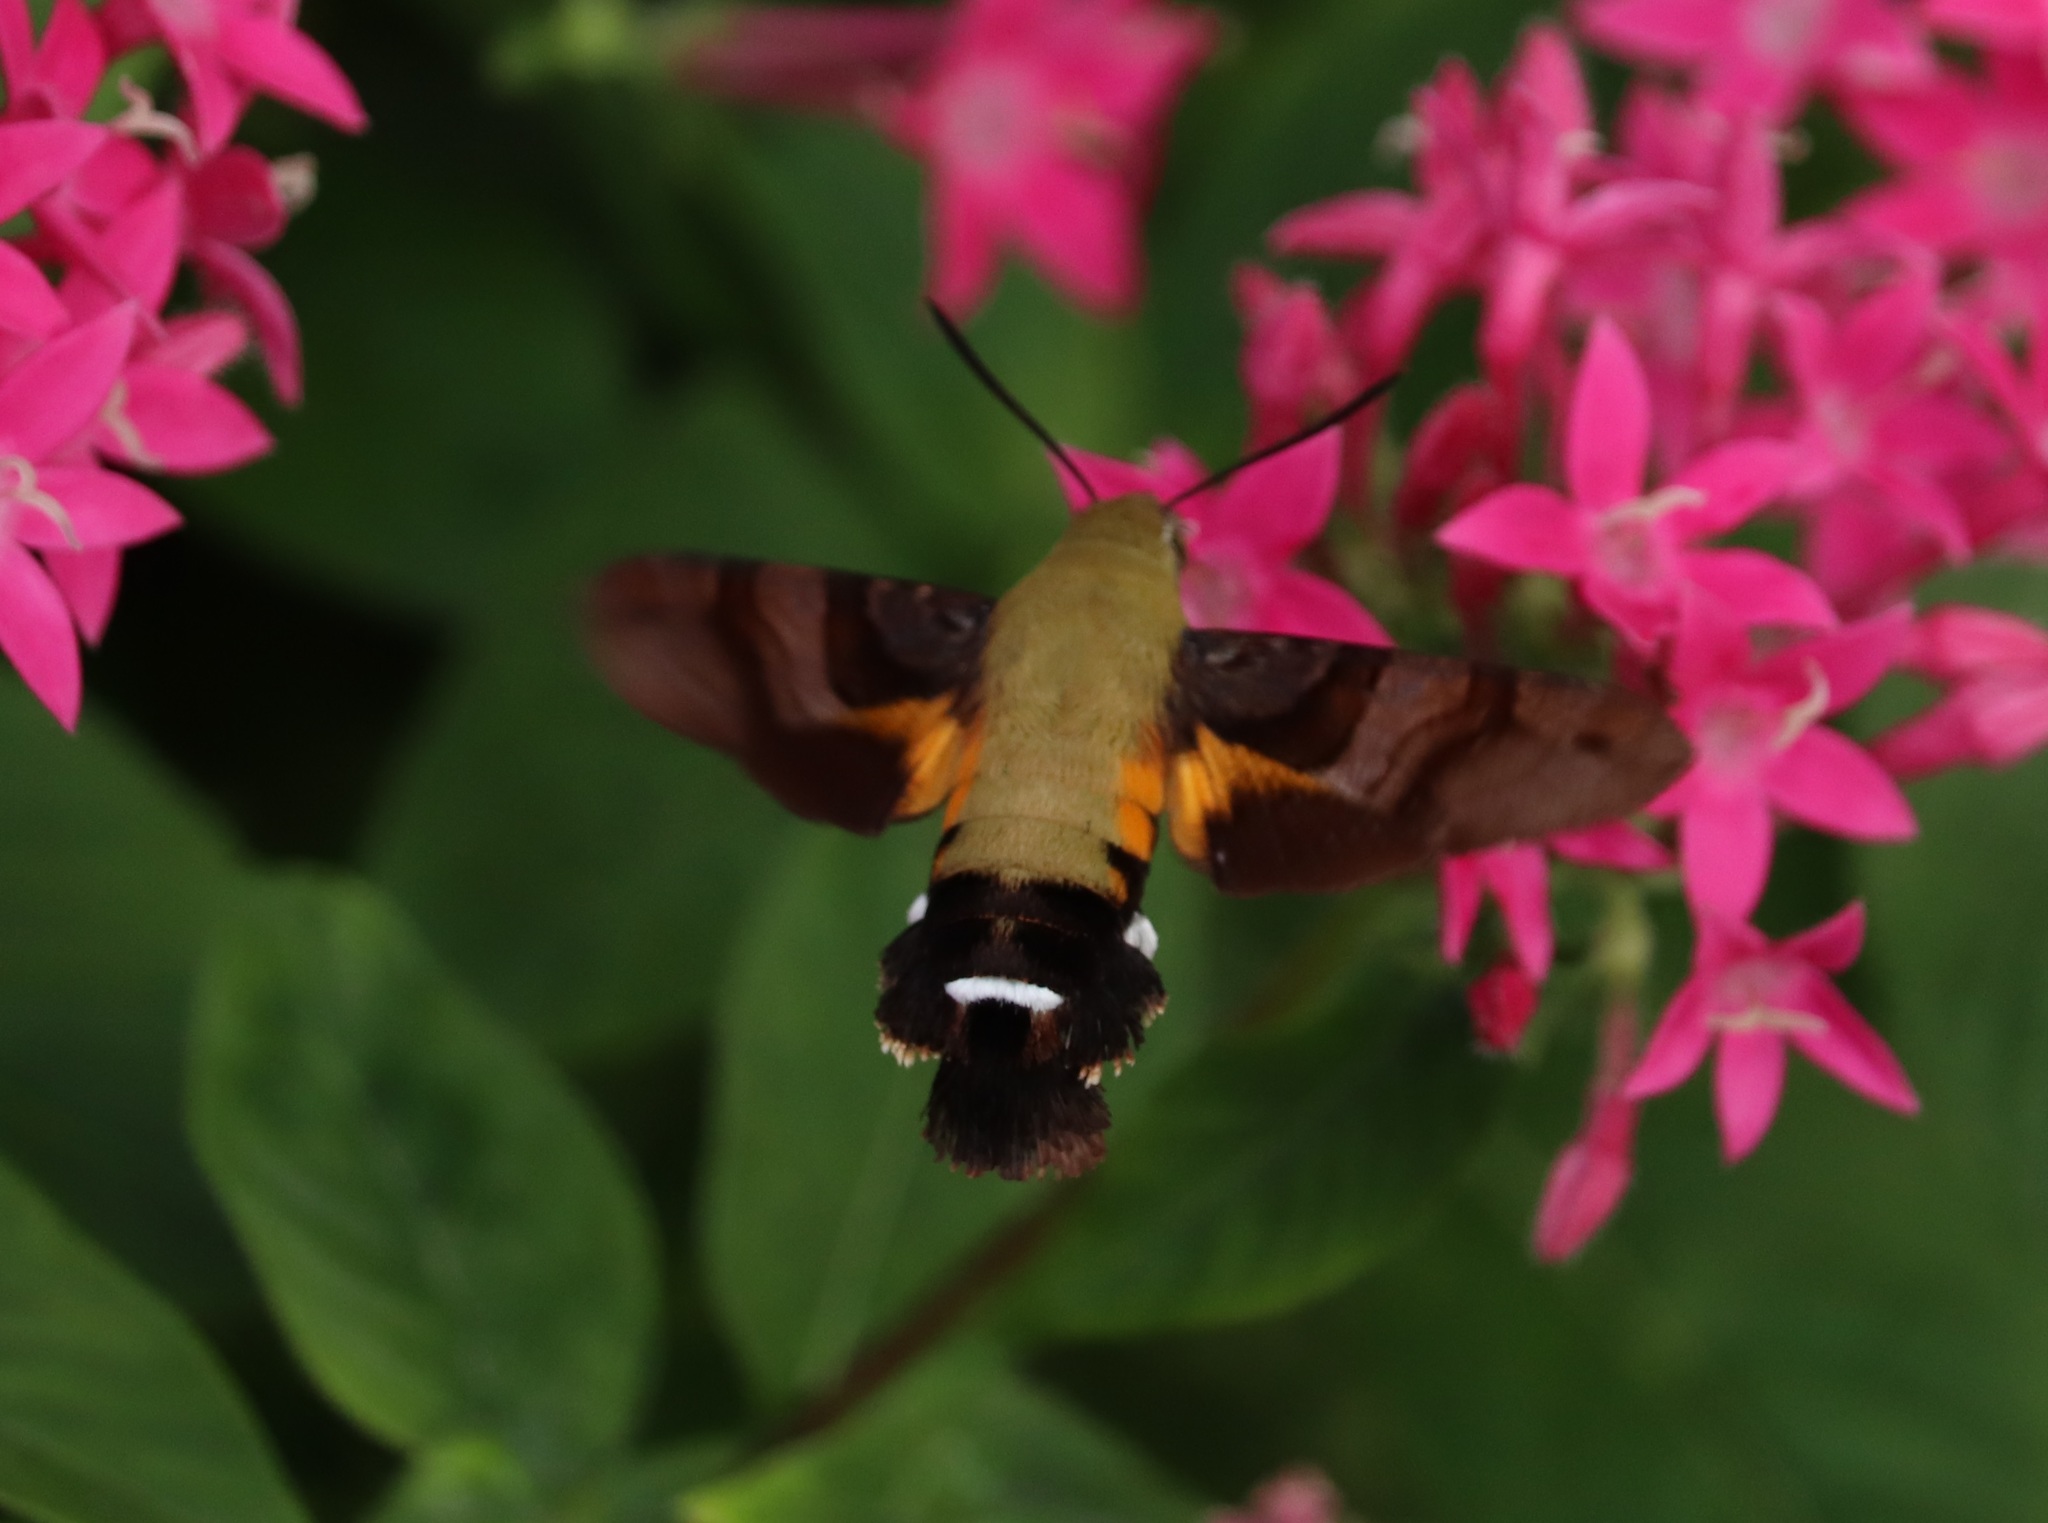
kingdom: Animalia
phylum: Arthropoda
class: Insecta
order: Lepidoptera
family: Sphingidae
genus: Macroglossum
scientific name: Macroglossum bombylans
